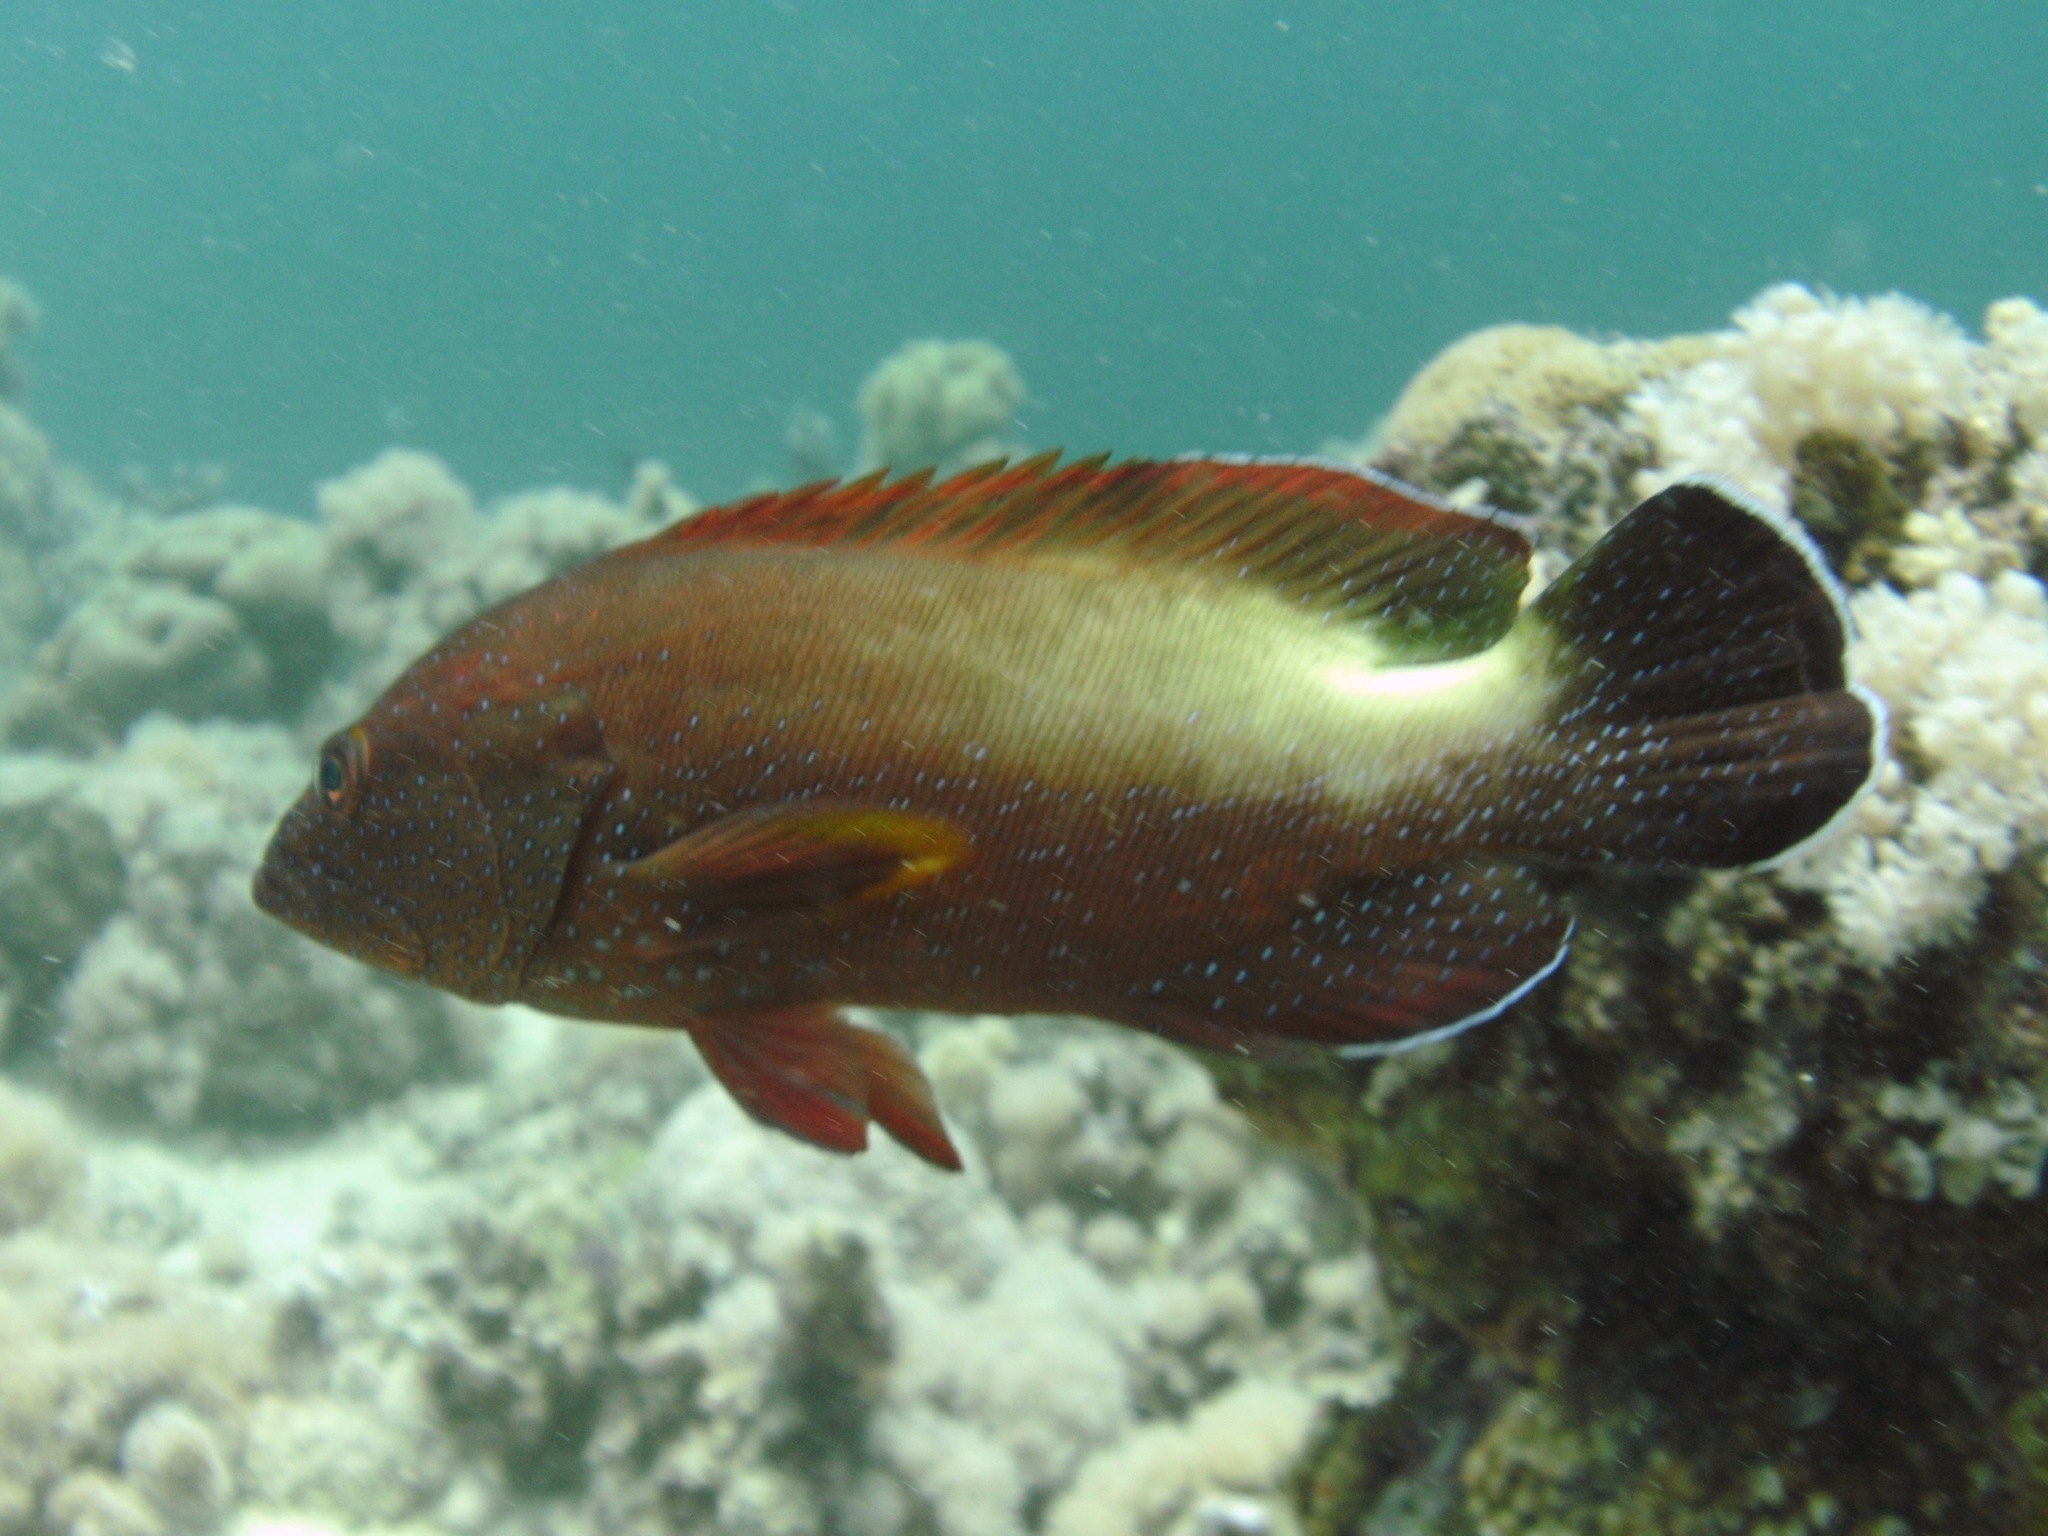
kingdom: Animalia
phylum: Chordata
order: Perciformes
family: Serranidae
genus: Cephalopholis
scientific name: Cephalopholis hemistiktos
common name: Halfspotted hind
